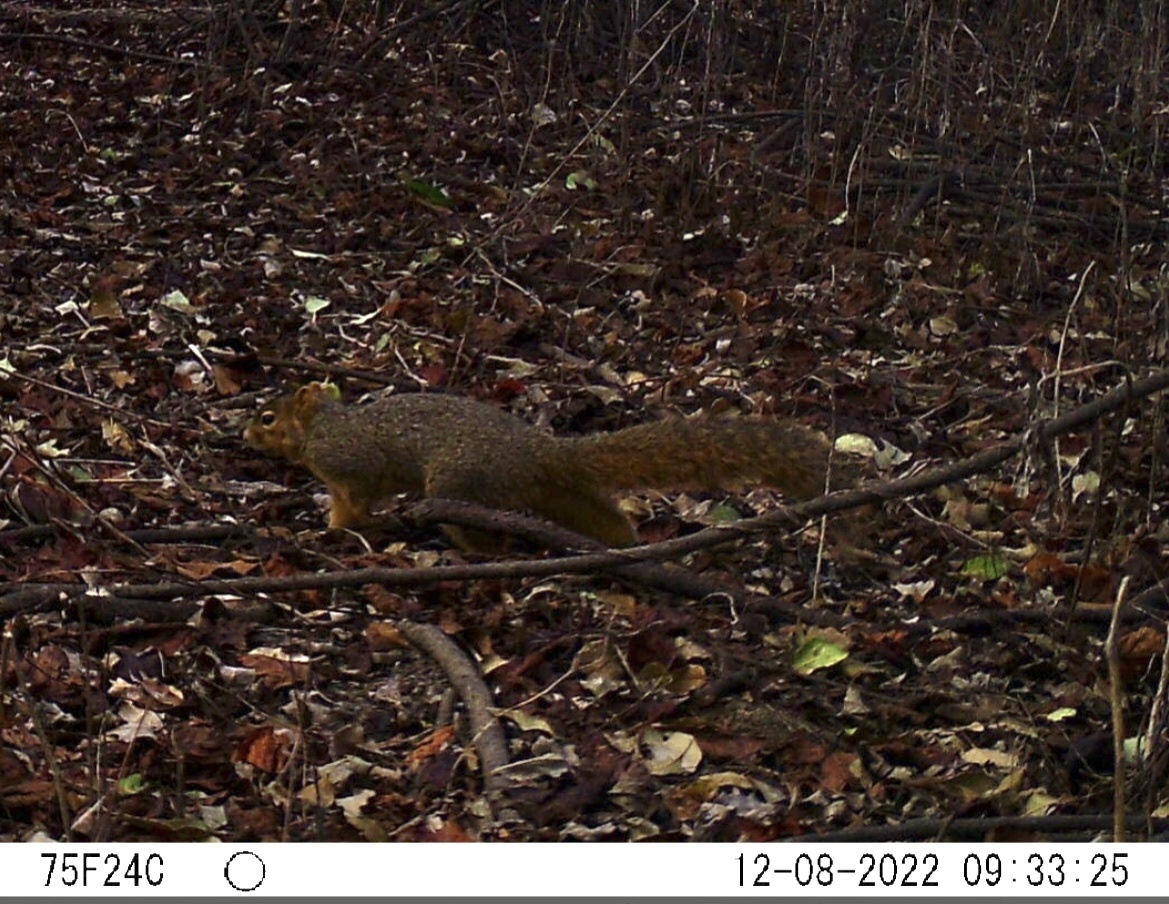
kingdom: Animalia
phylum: Chordata
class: Mammalia
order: Rodentia
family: Sciuridae
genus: Sciurus
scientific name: Sciurus niger
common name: Fox squirrel
